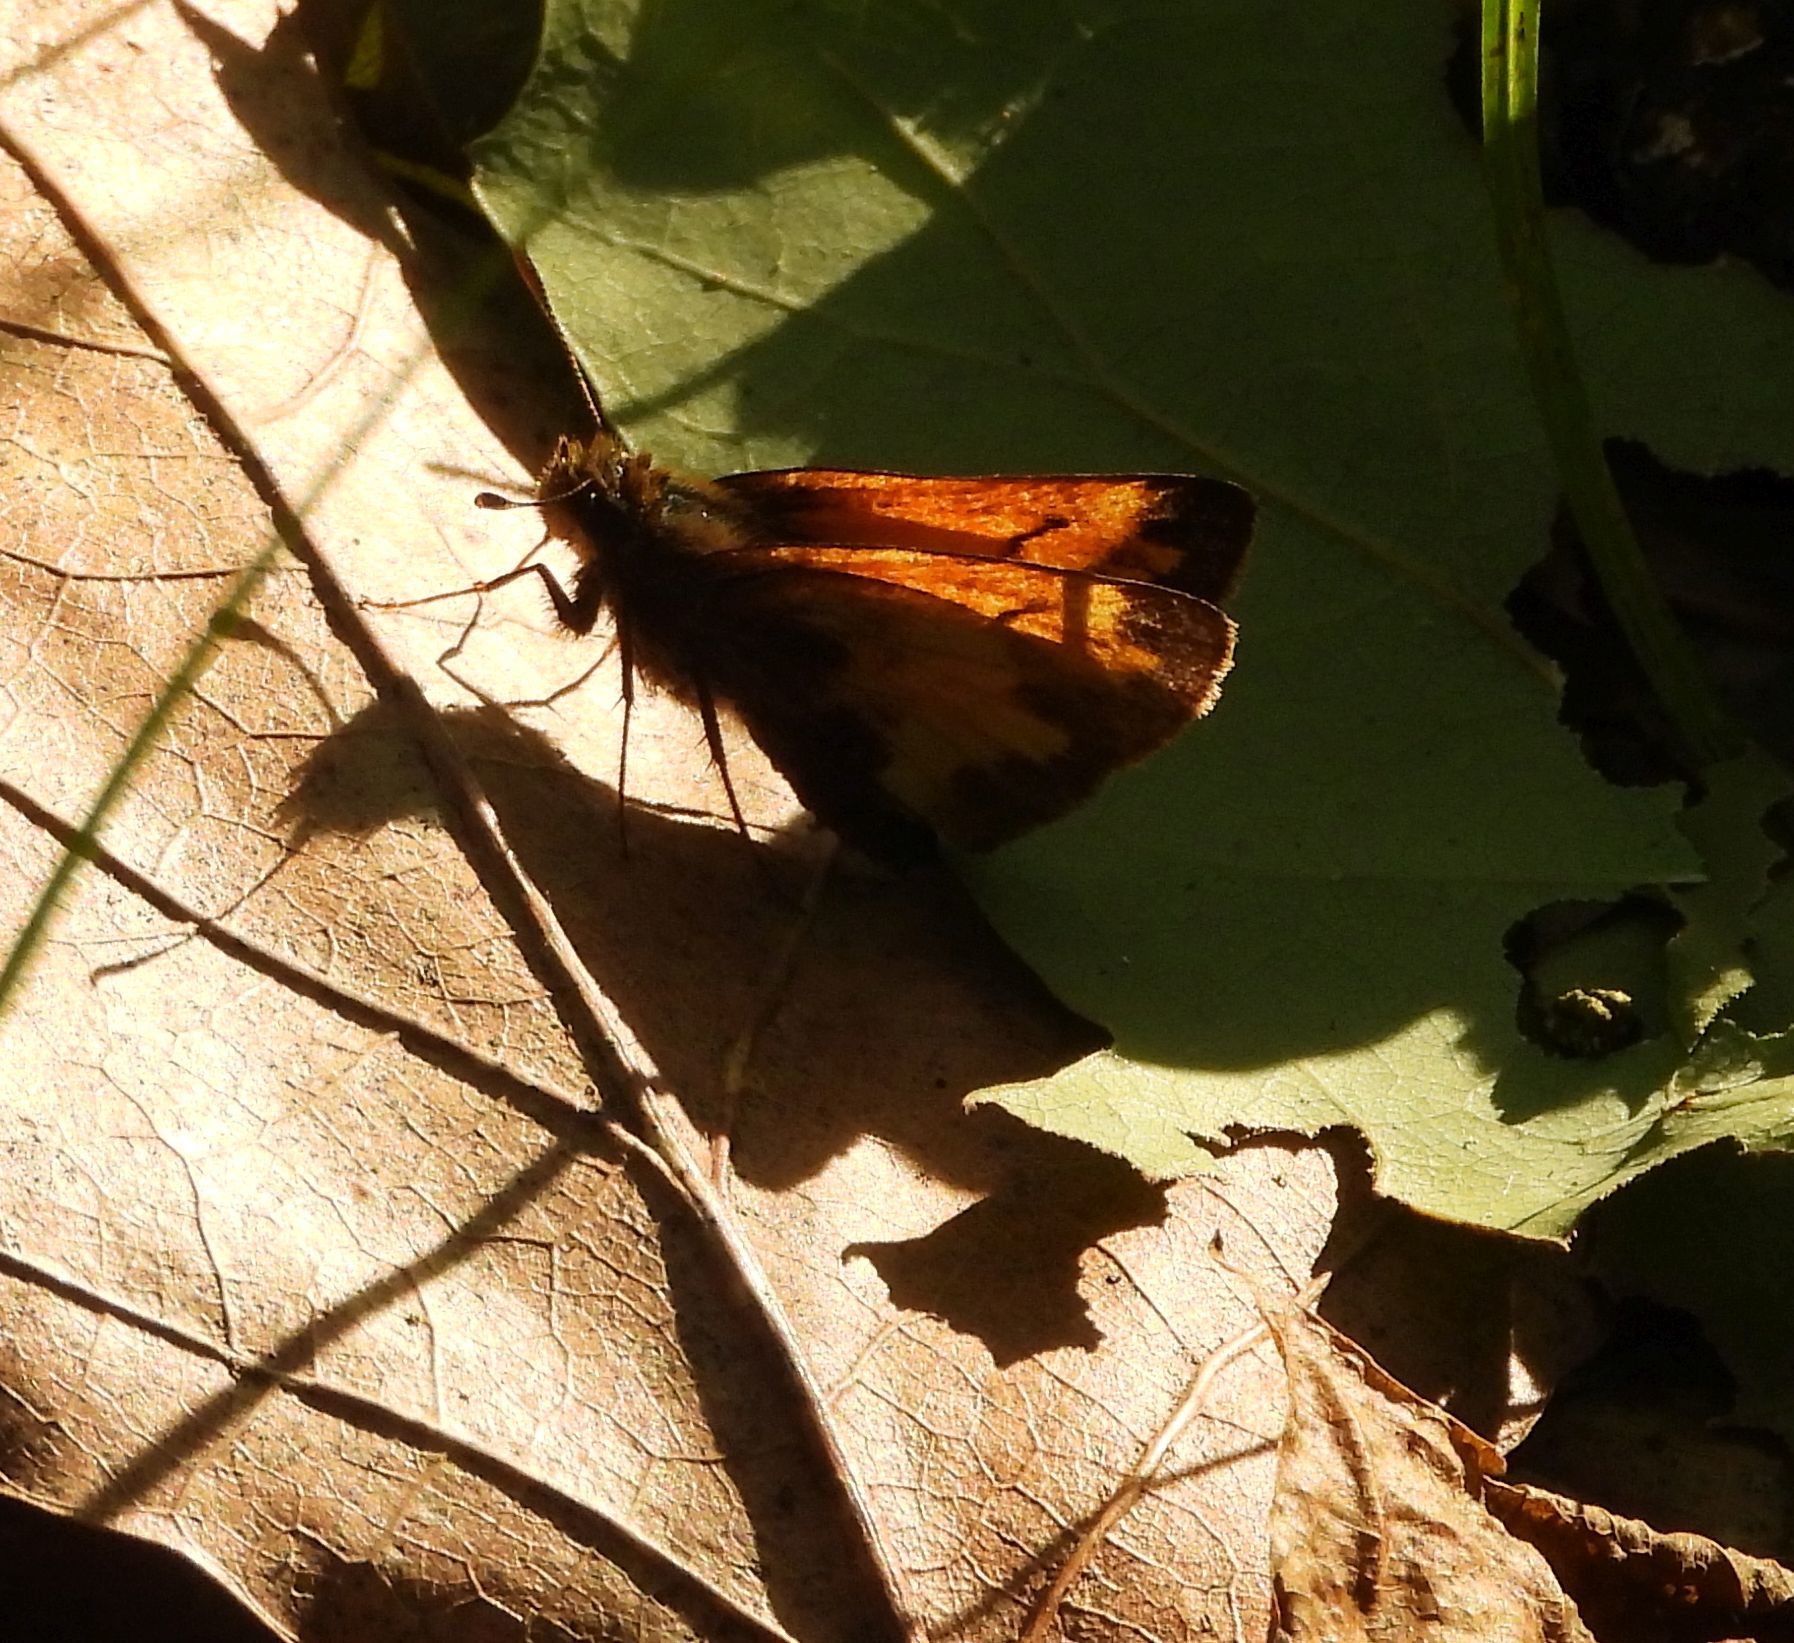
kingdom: Animalia
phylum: Arthropoda
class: Insecta
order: Lepidoptera
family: Hesperiidae
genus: Lon
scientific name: Lon hobomok
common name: Hobomok skipper
